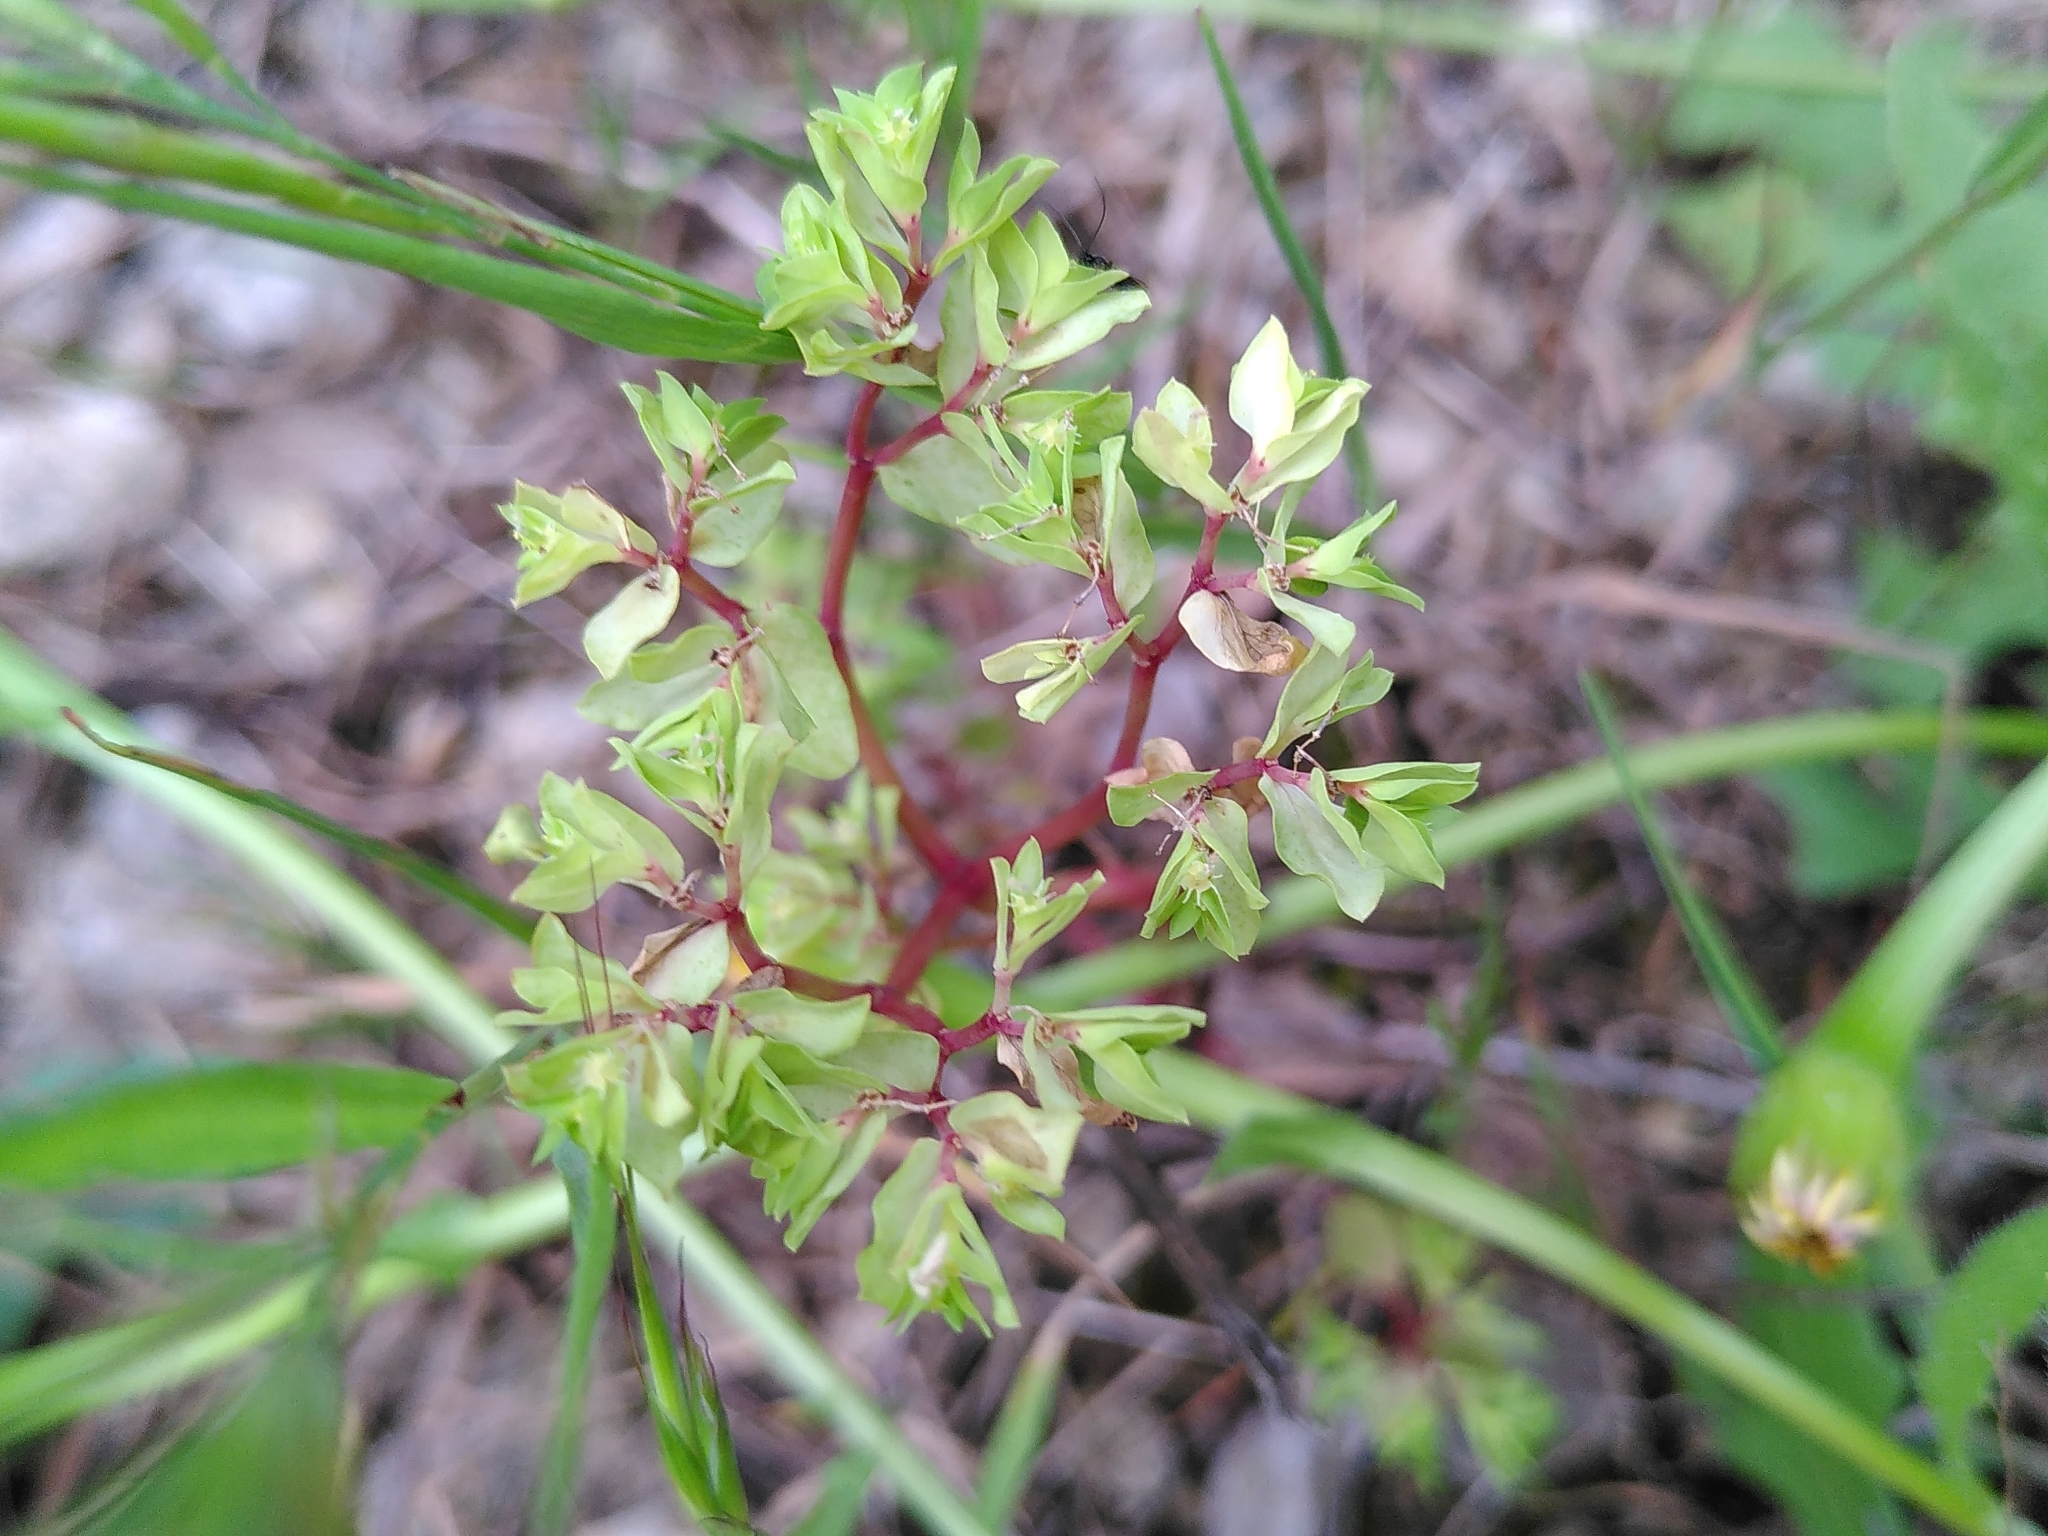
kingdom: Plantae
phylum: Tracheophyta
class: Magnoliopsida
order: Malpighiales
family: Euphorbiaceae
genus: Euphorbia
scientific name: Euphorbia peplus
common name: Petty spurge
